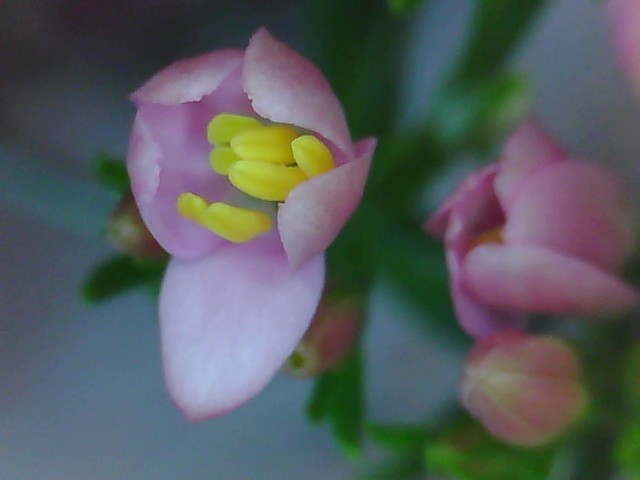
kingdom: Plantae
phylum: Tracheophyta
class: Magnoliopsida
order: Gentianales
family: Gentianaceae
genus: Centaurium
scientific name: Centaurium erythraea
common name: Common centaury
